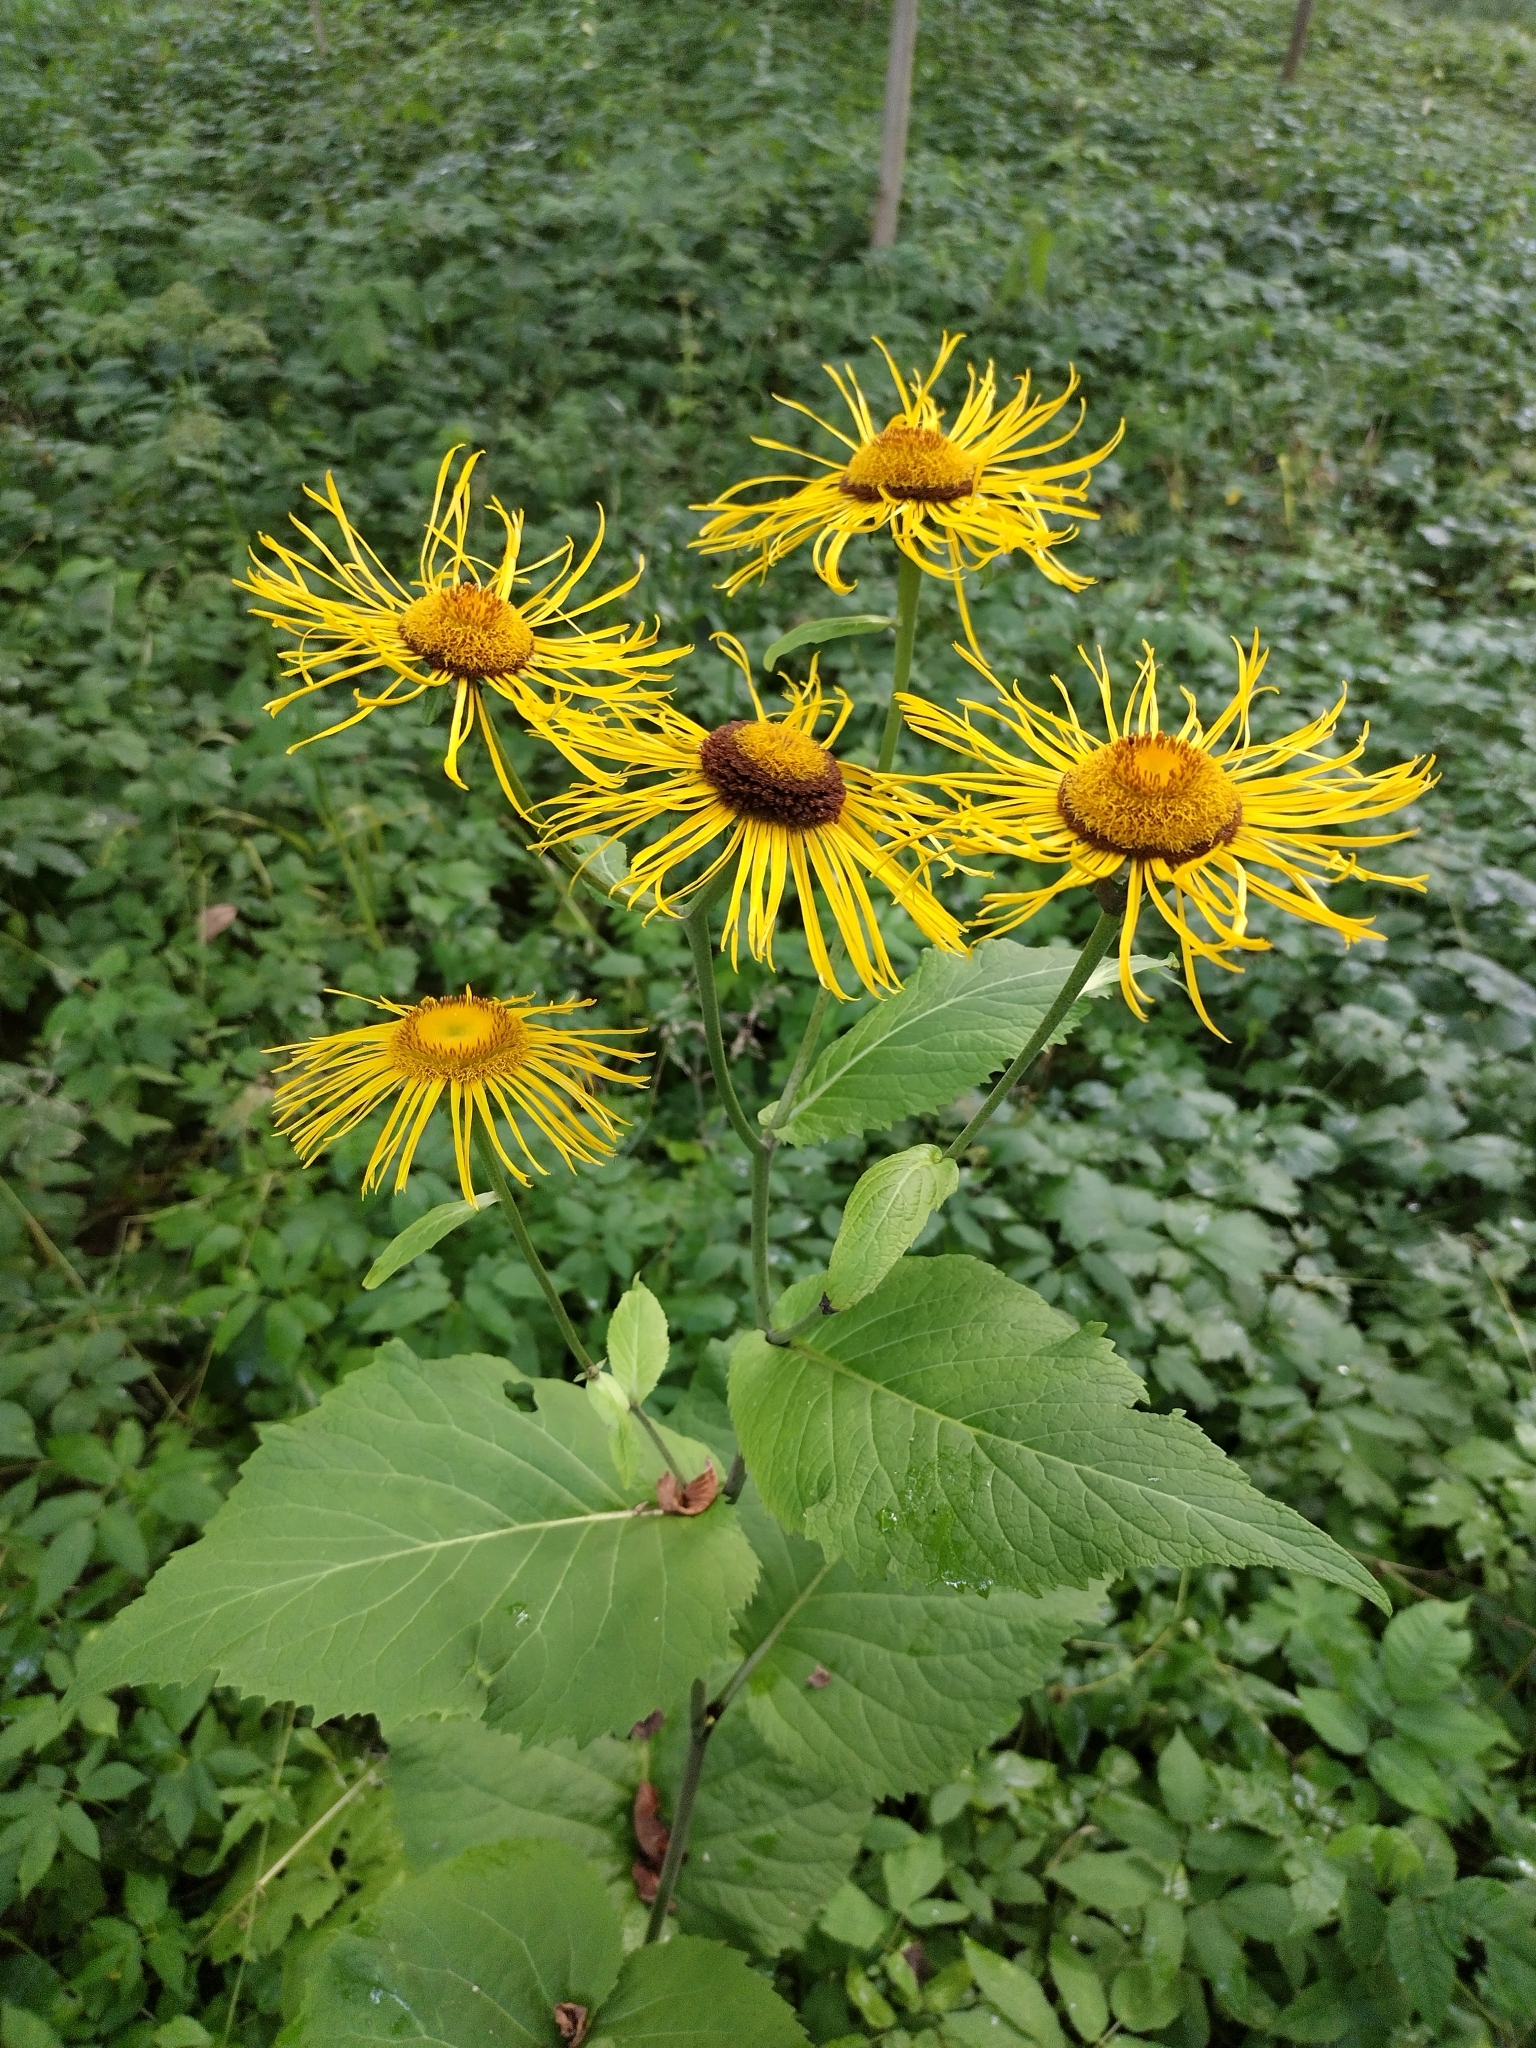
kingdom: Plantae
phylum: Tracheophyta
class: Magnoliopsida
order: Asterales
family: Asteraceae
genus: Telekia
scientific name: Telekia speciosa
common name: Yellow oxeye
